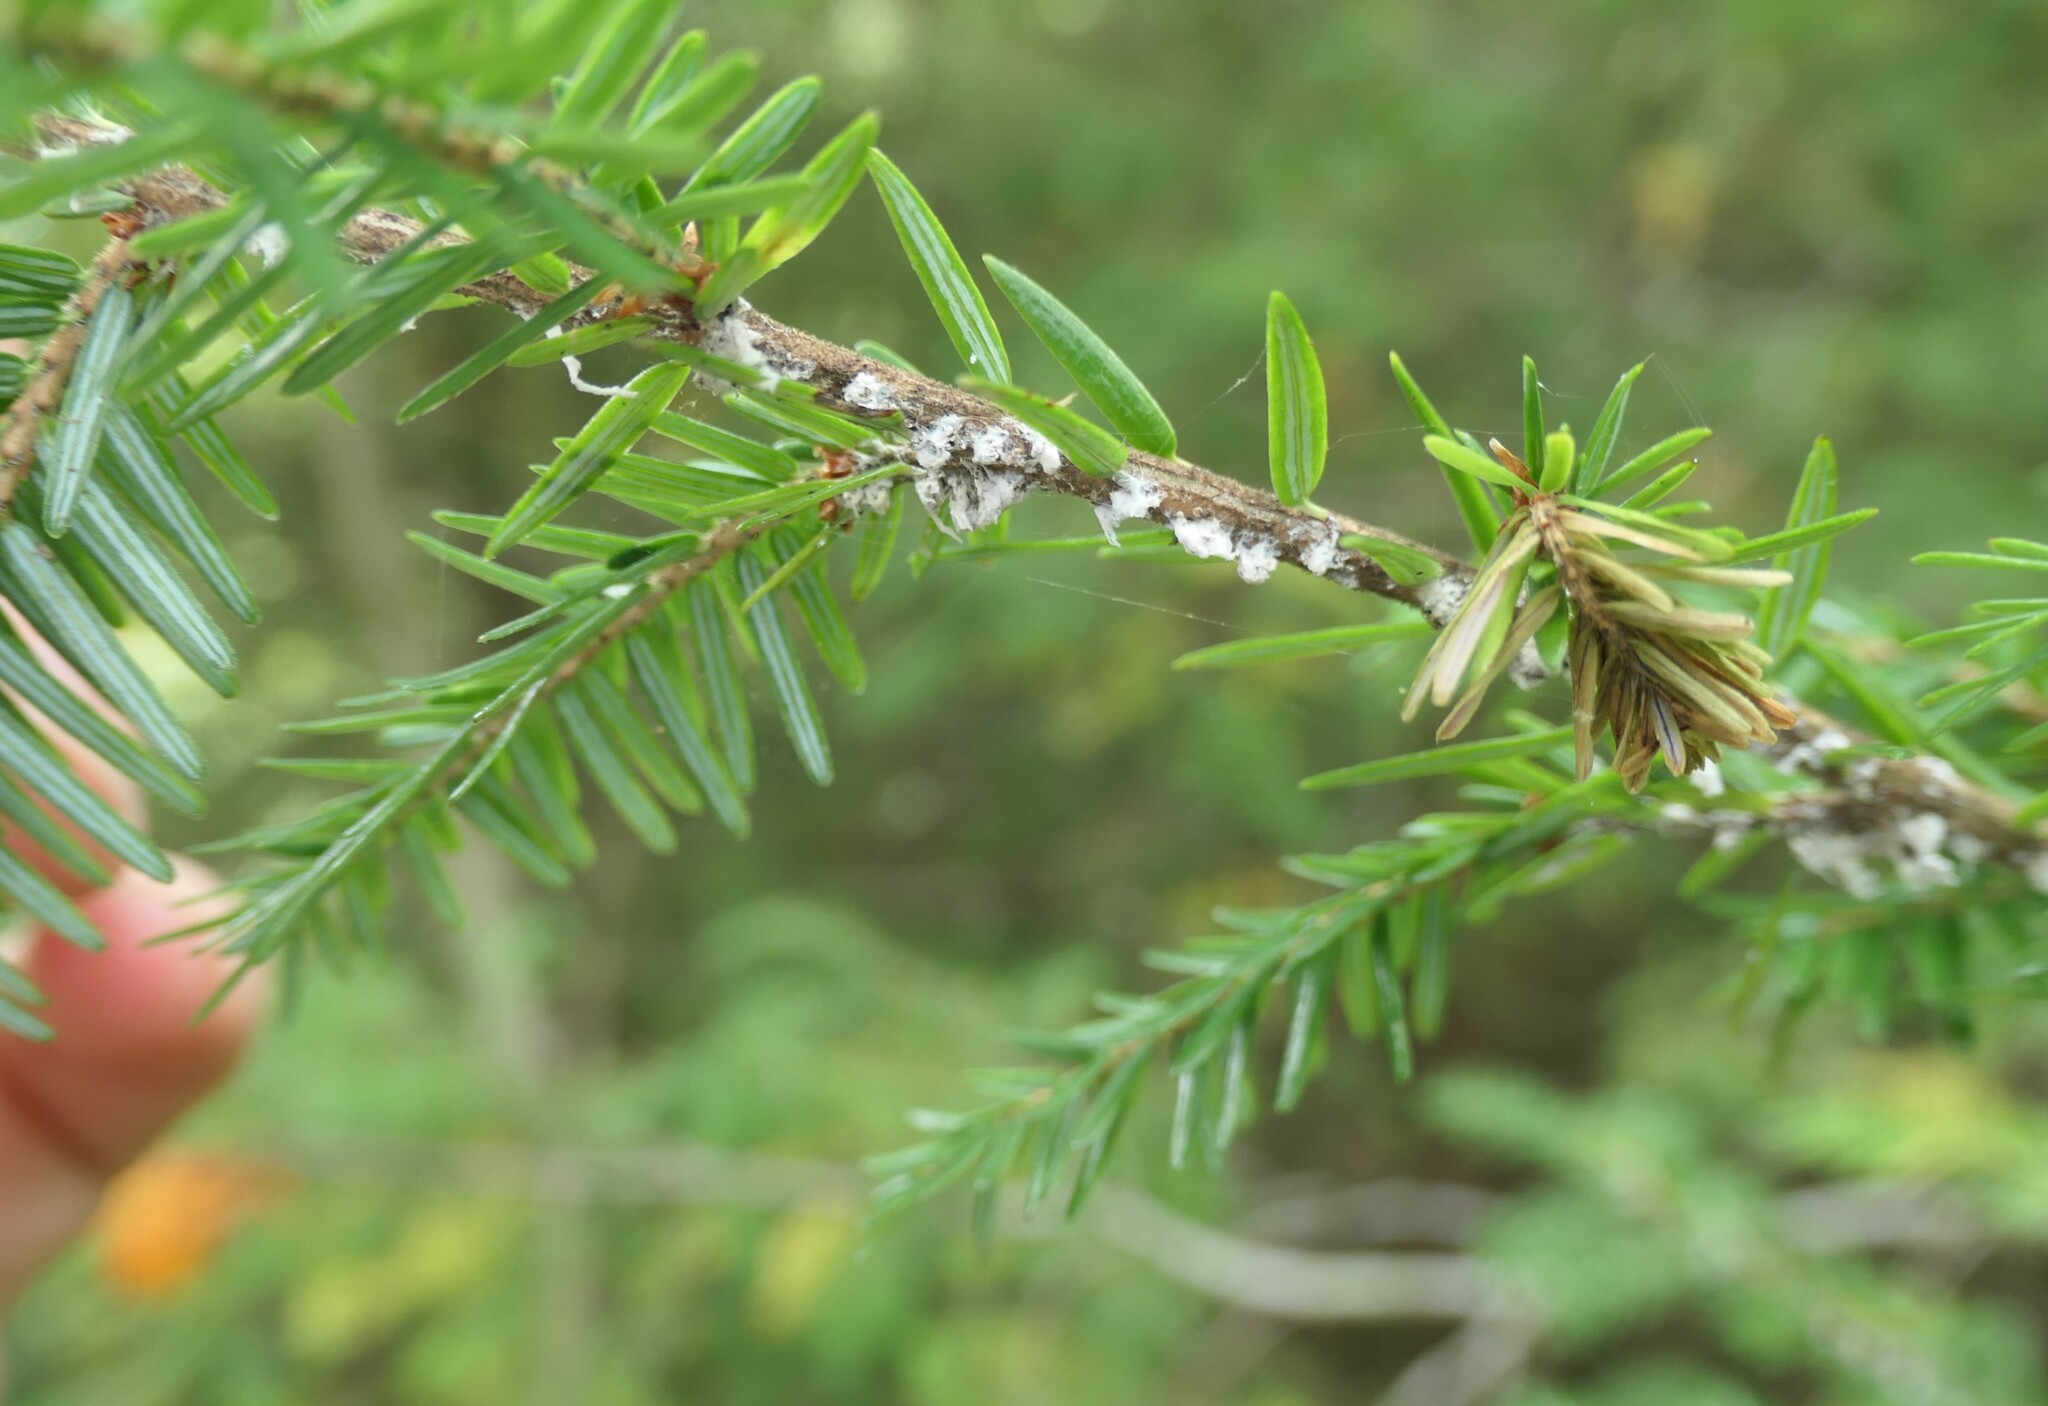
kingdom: Animalia
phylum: Arthropoda
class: Insecta
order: Hemiptera
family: Adelgidae
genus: Adelges
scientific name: Adelges tsugae
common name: Hemlock woolly adelgid
